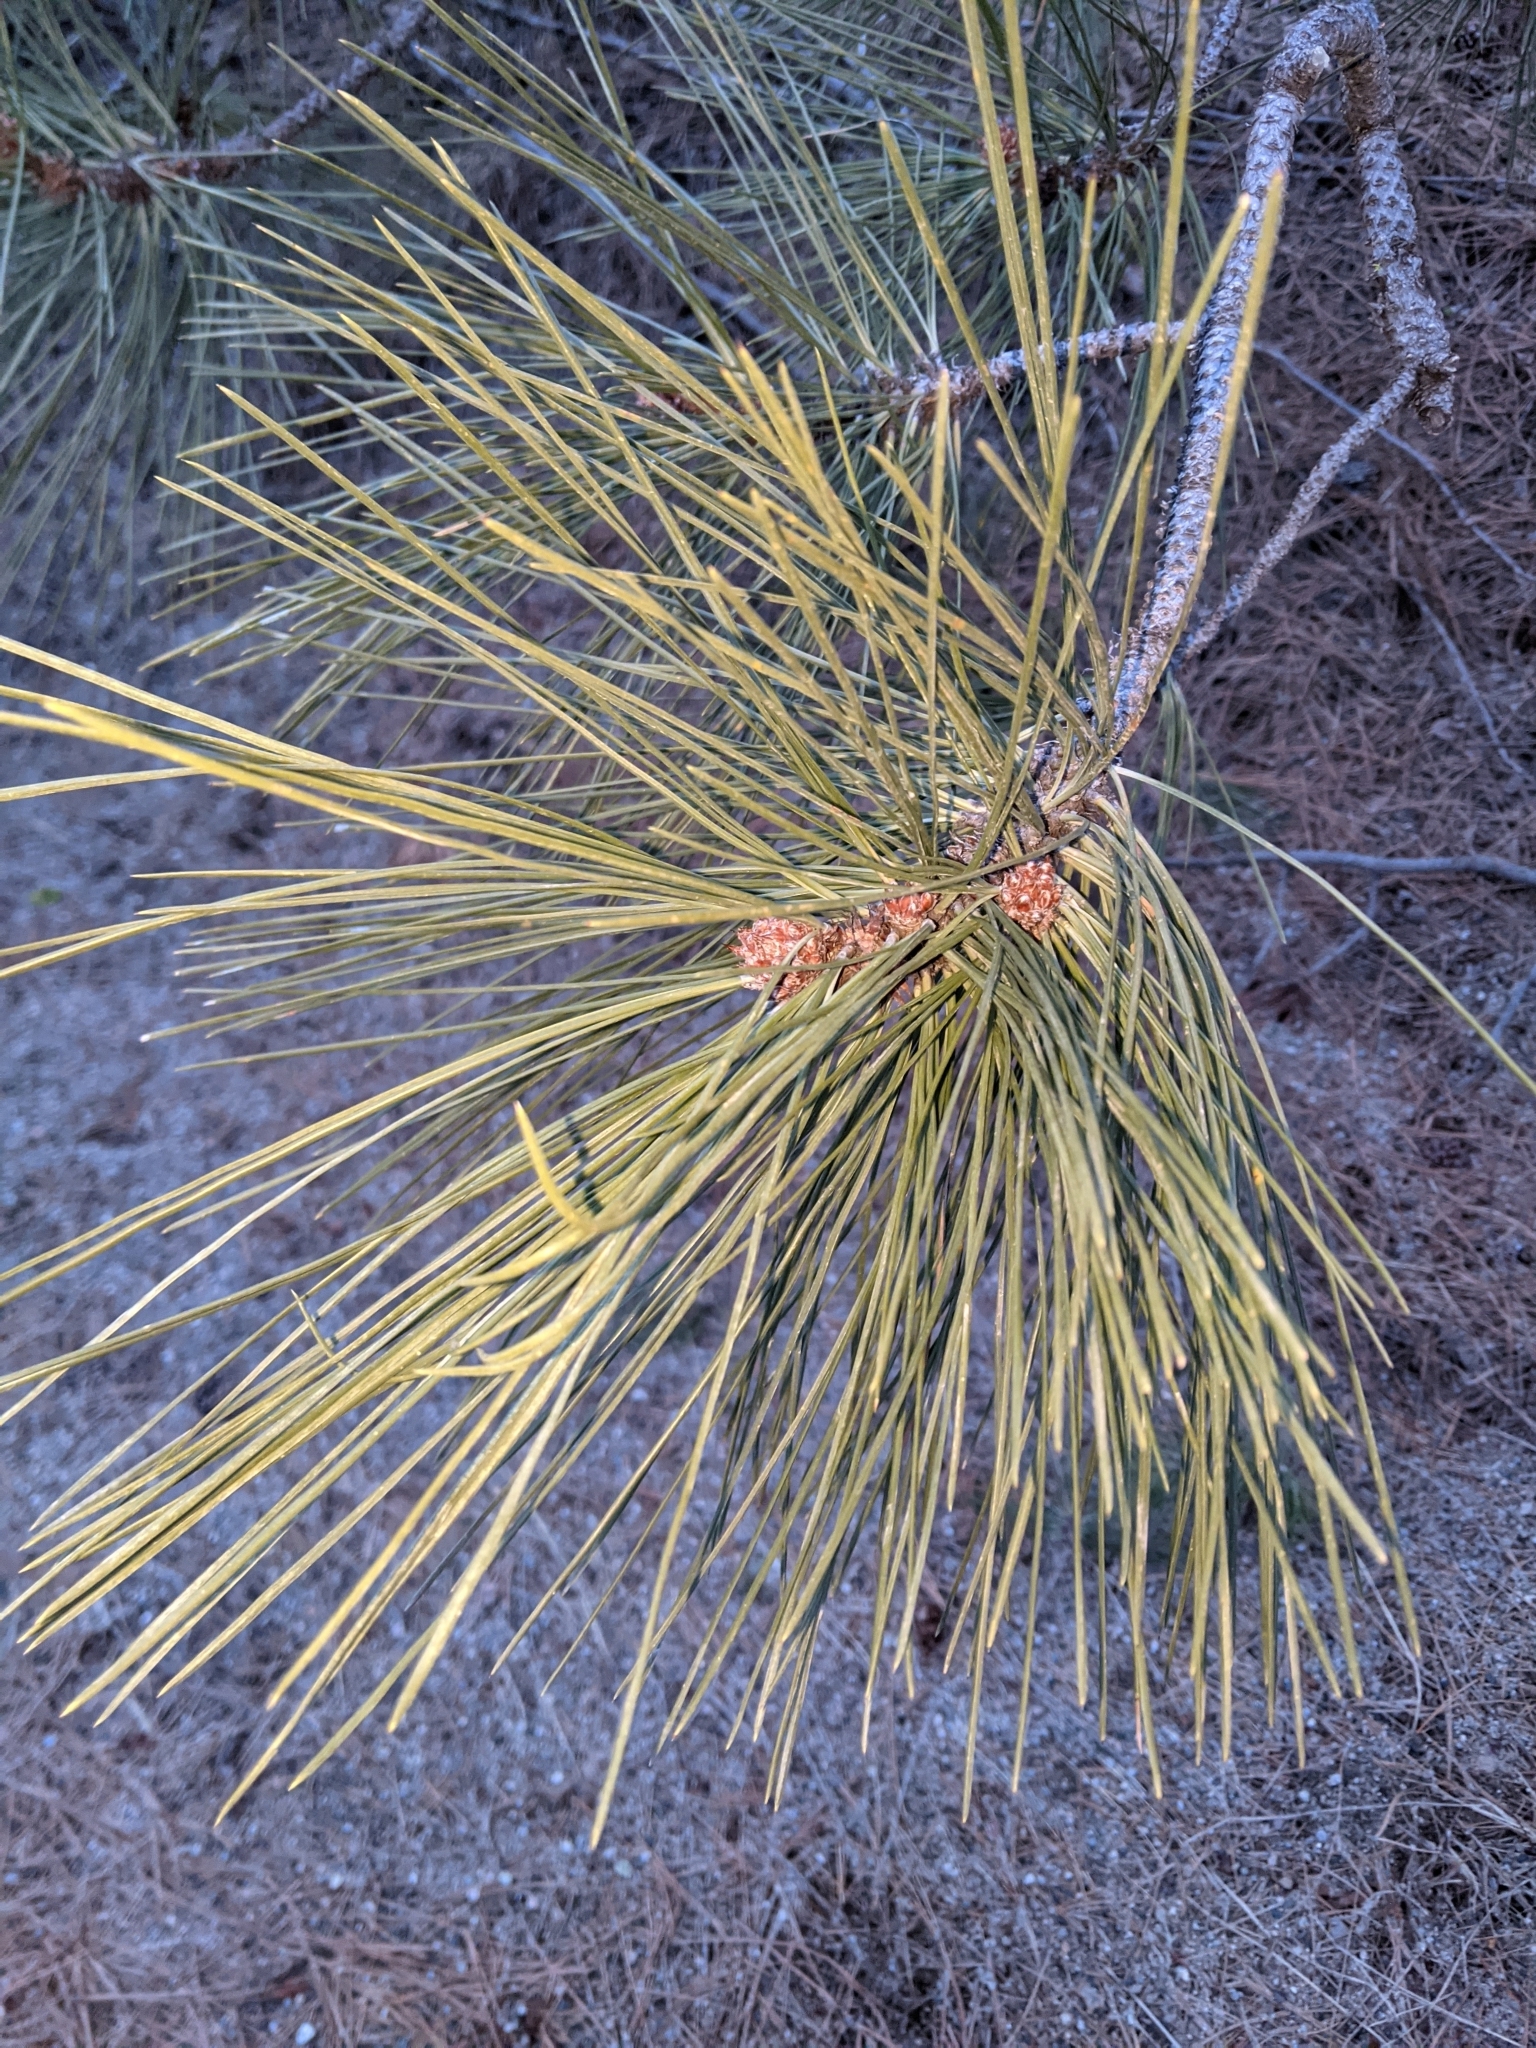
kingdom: Plantae
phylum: Tracheophyta
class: Pinopsida
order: Pinales
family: Pinaceae
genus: Pinus
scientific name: Pinus ponderosa
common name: Western yellow-pine
